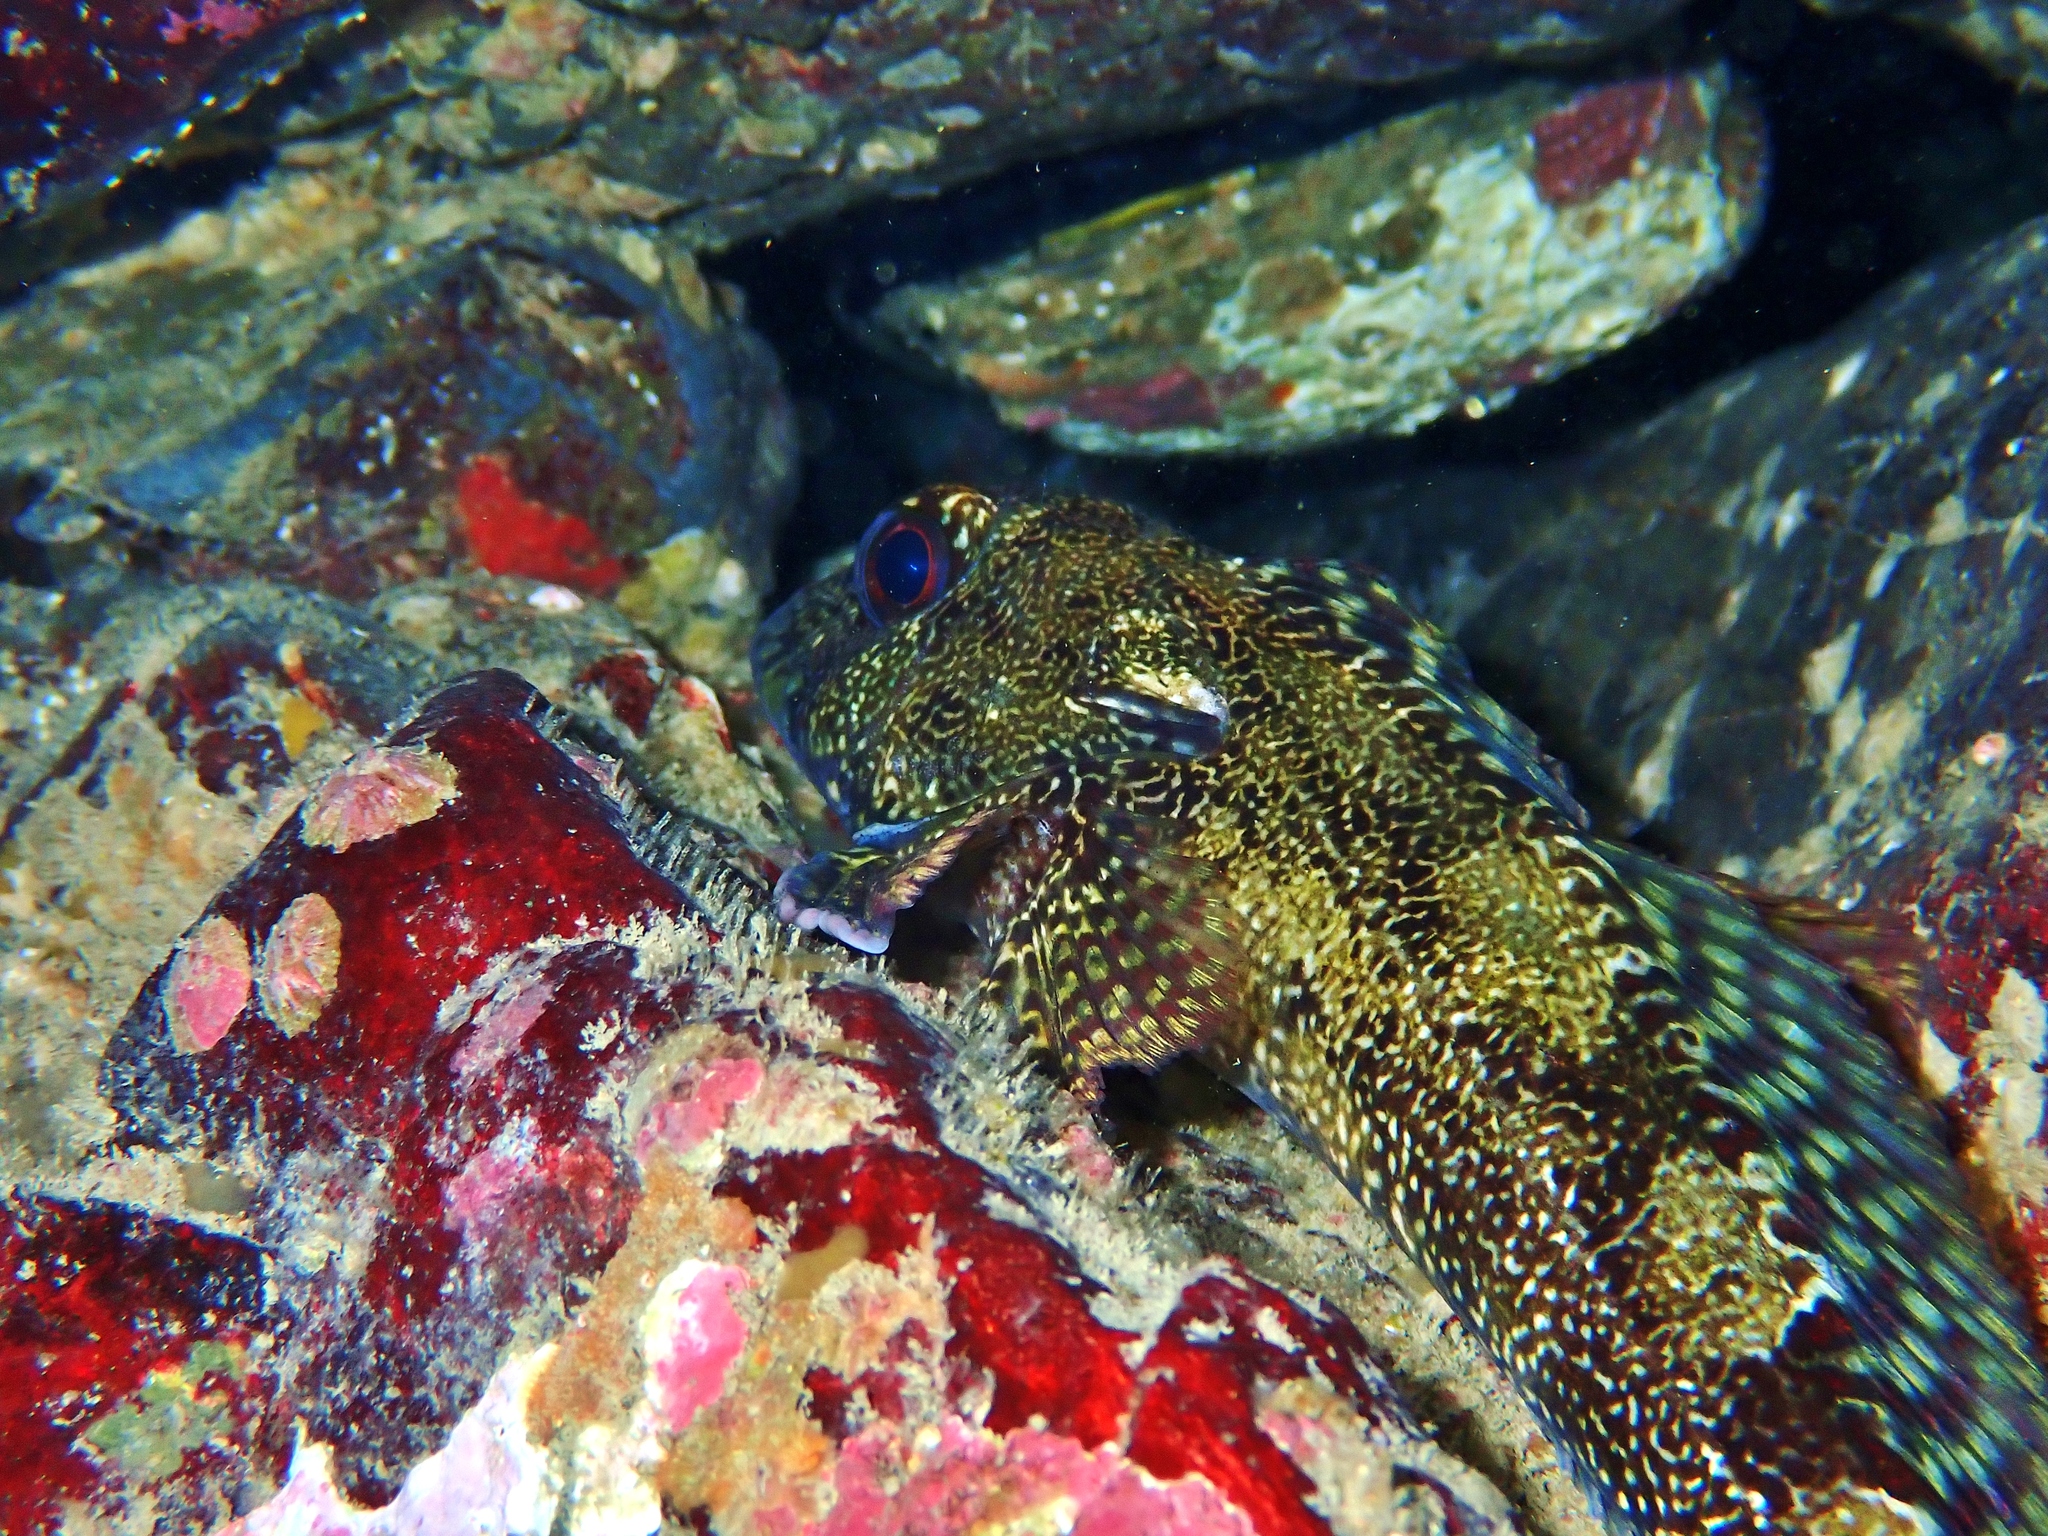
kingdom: Animalia
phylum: Chordata
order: Perciformes
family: Bovichtidae
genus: Bovichtus
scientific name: Bovichtus variegatus
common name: Thornfish
